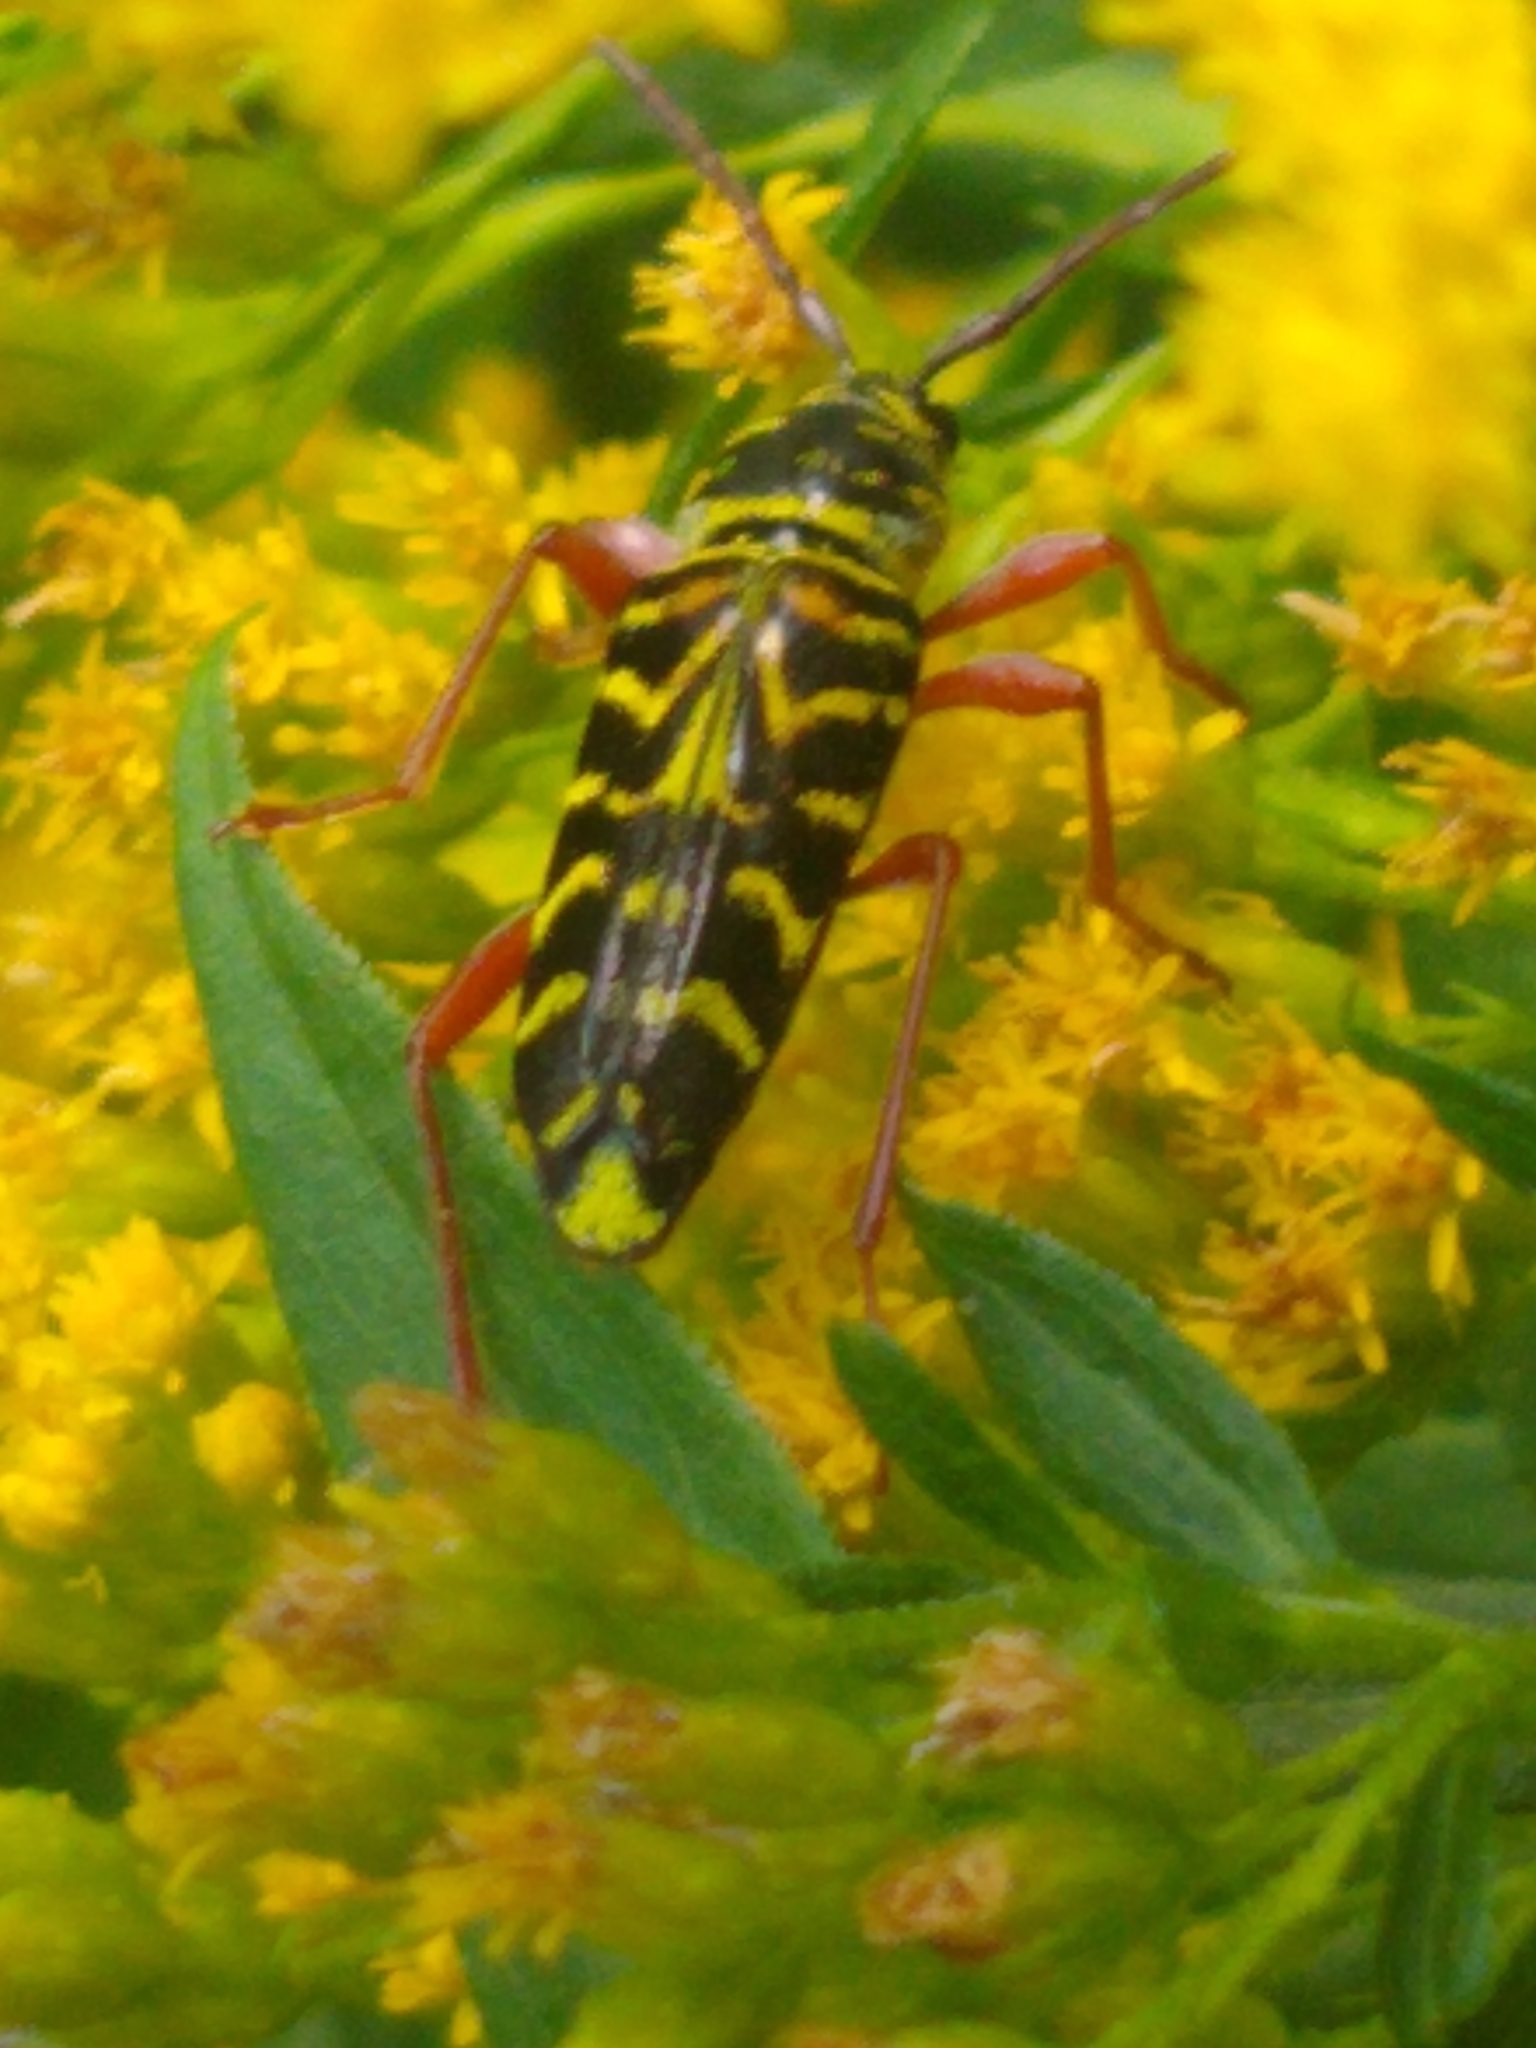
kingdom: Animalia
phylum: Arthropoda
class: Insecta
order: Coleoptera
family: Cerambycidae
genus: Megacyllene
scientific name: Megacyllene robiniae
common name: Locust borer
